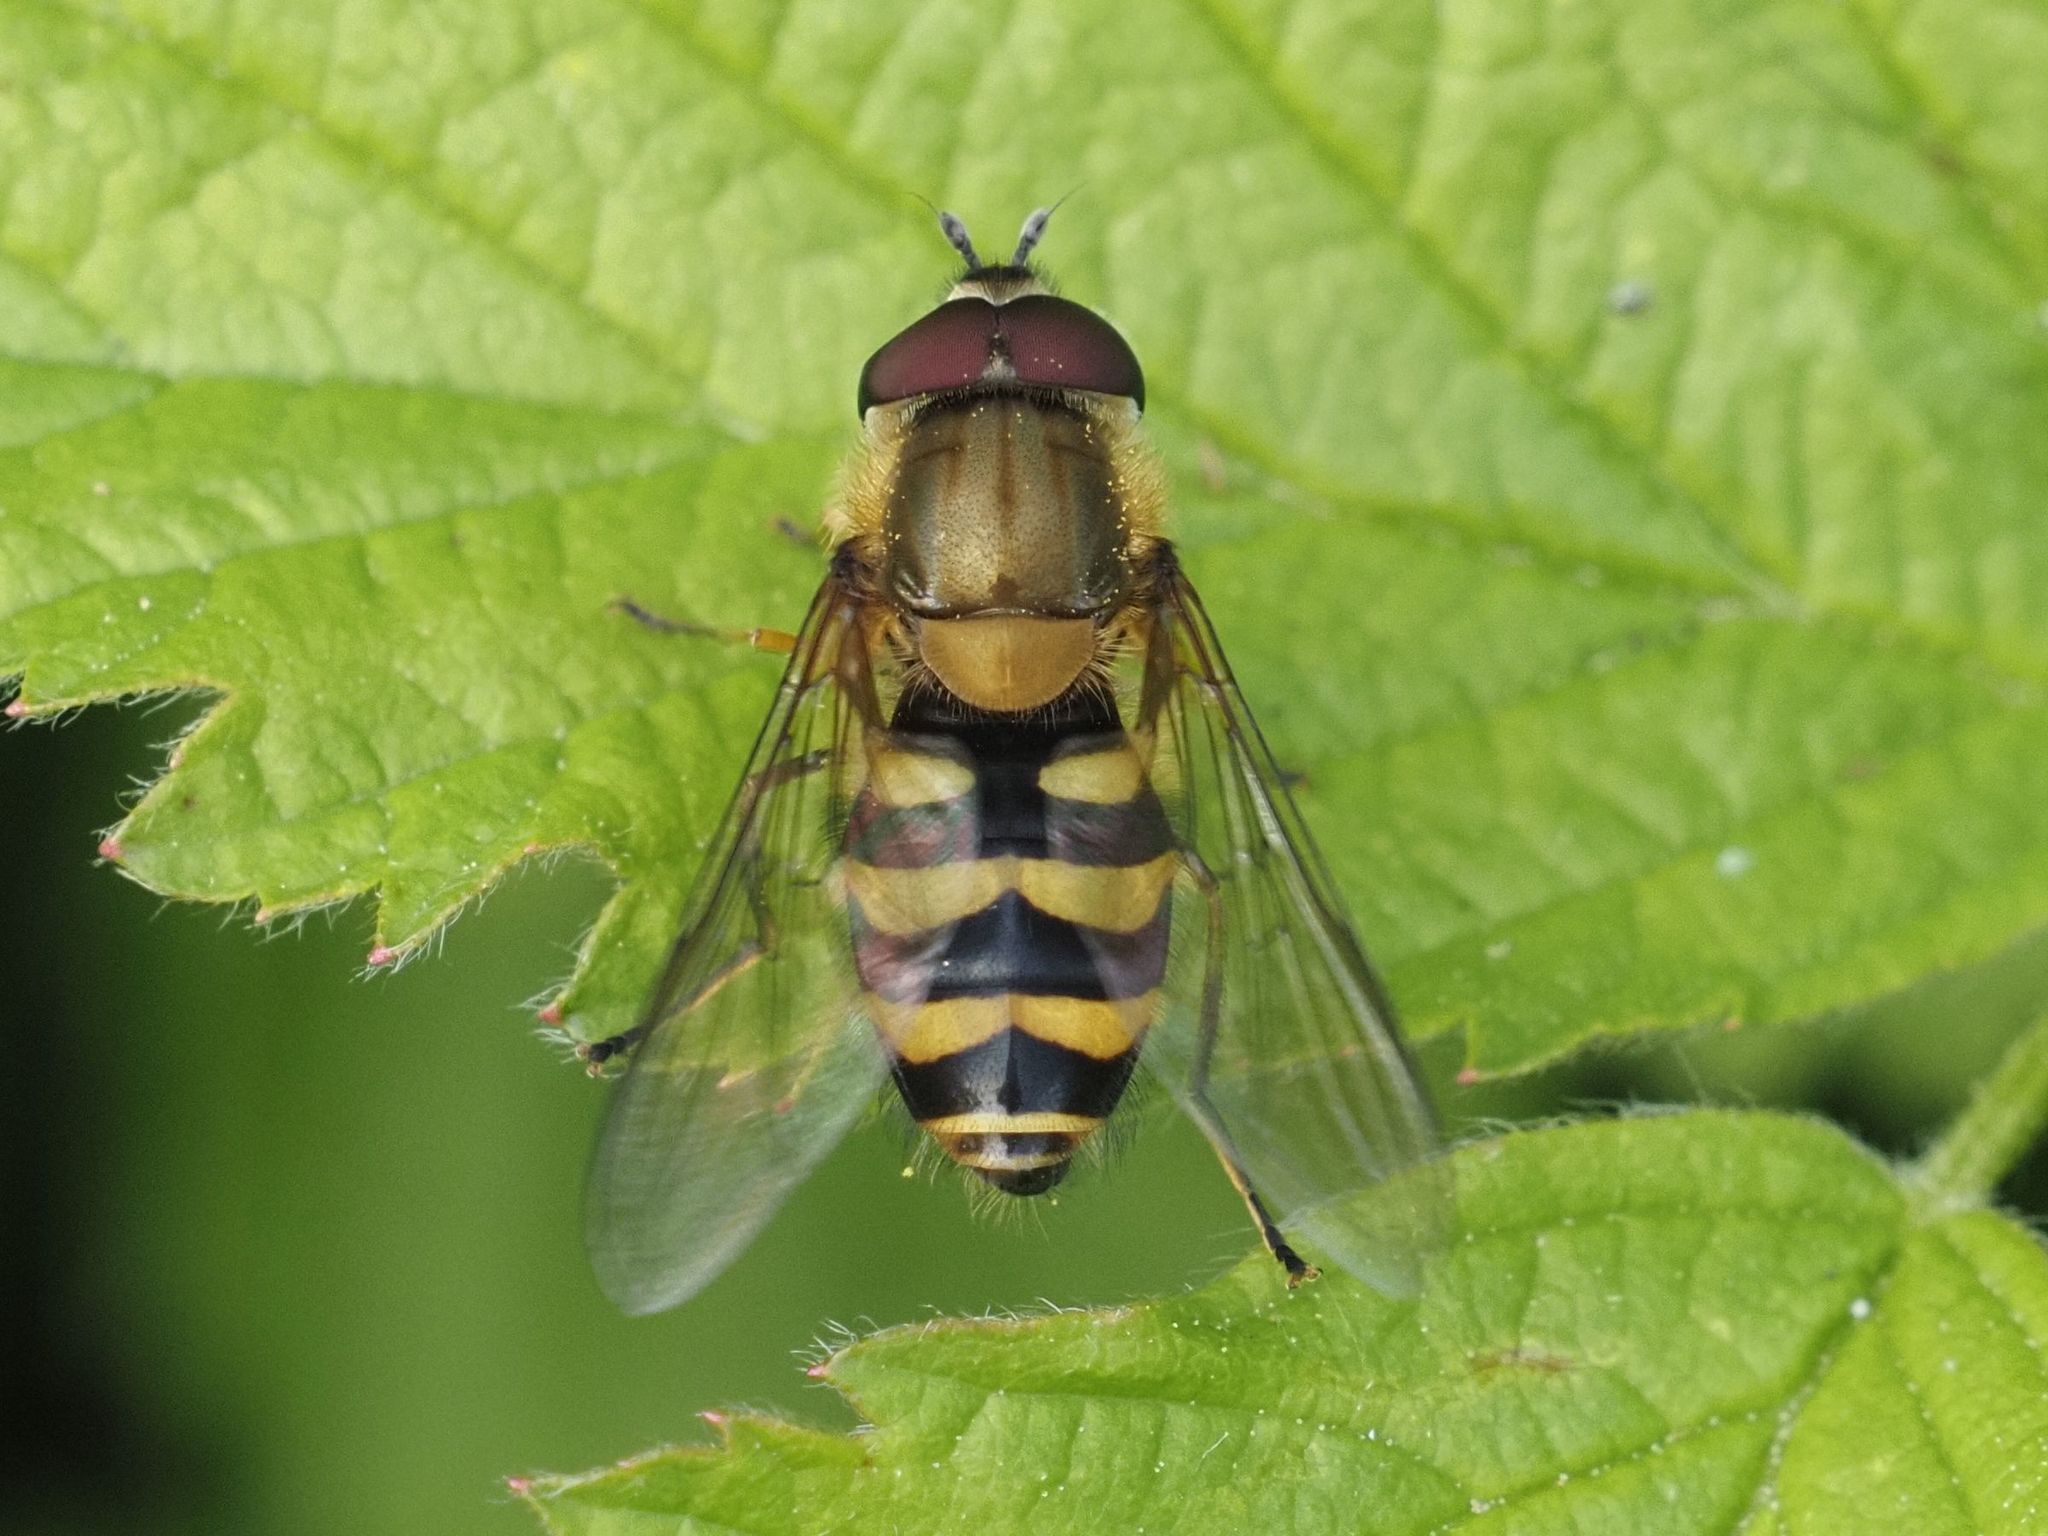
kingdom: Animalia
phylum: Arthropoda
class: Insecta
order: Diptera
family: Syrphidae
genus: Syrphus
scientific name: Syrphus
